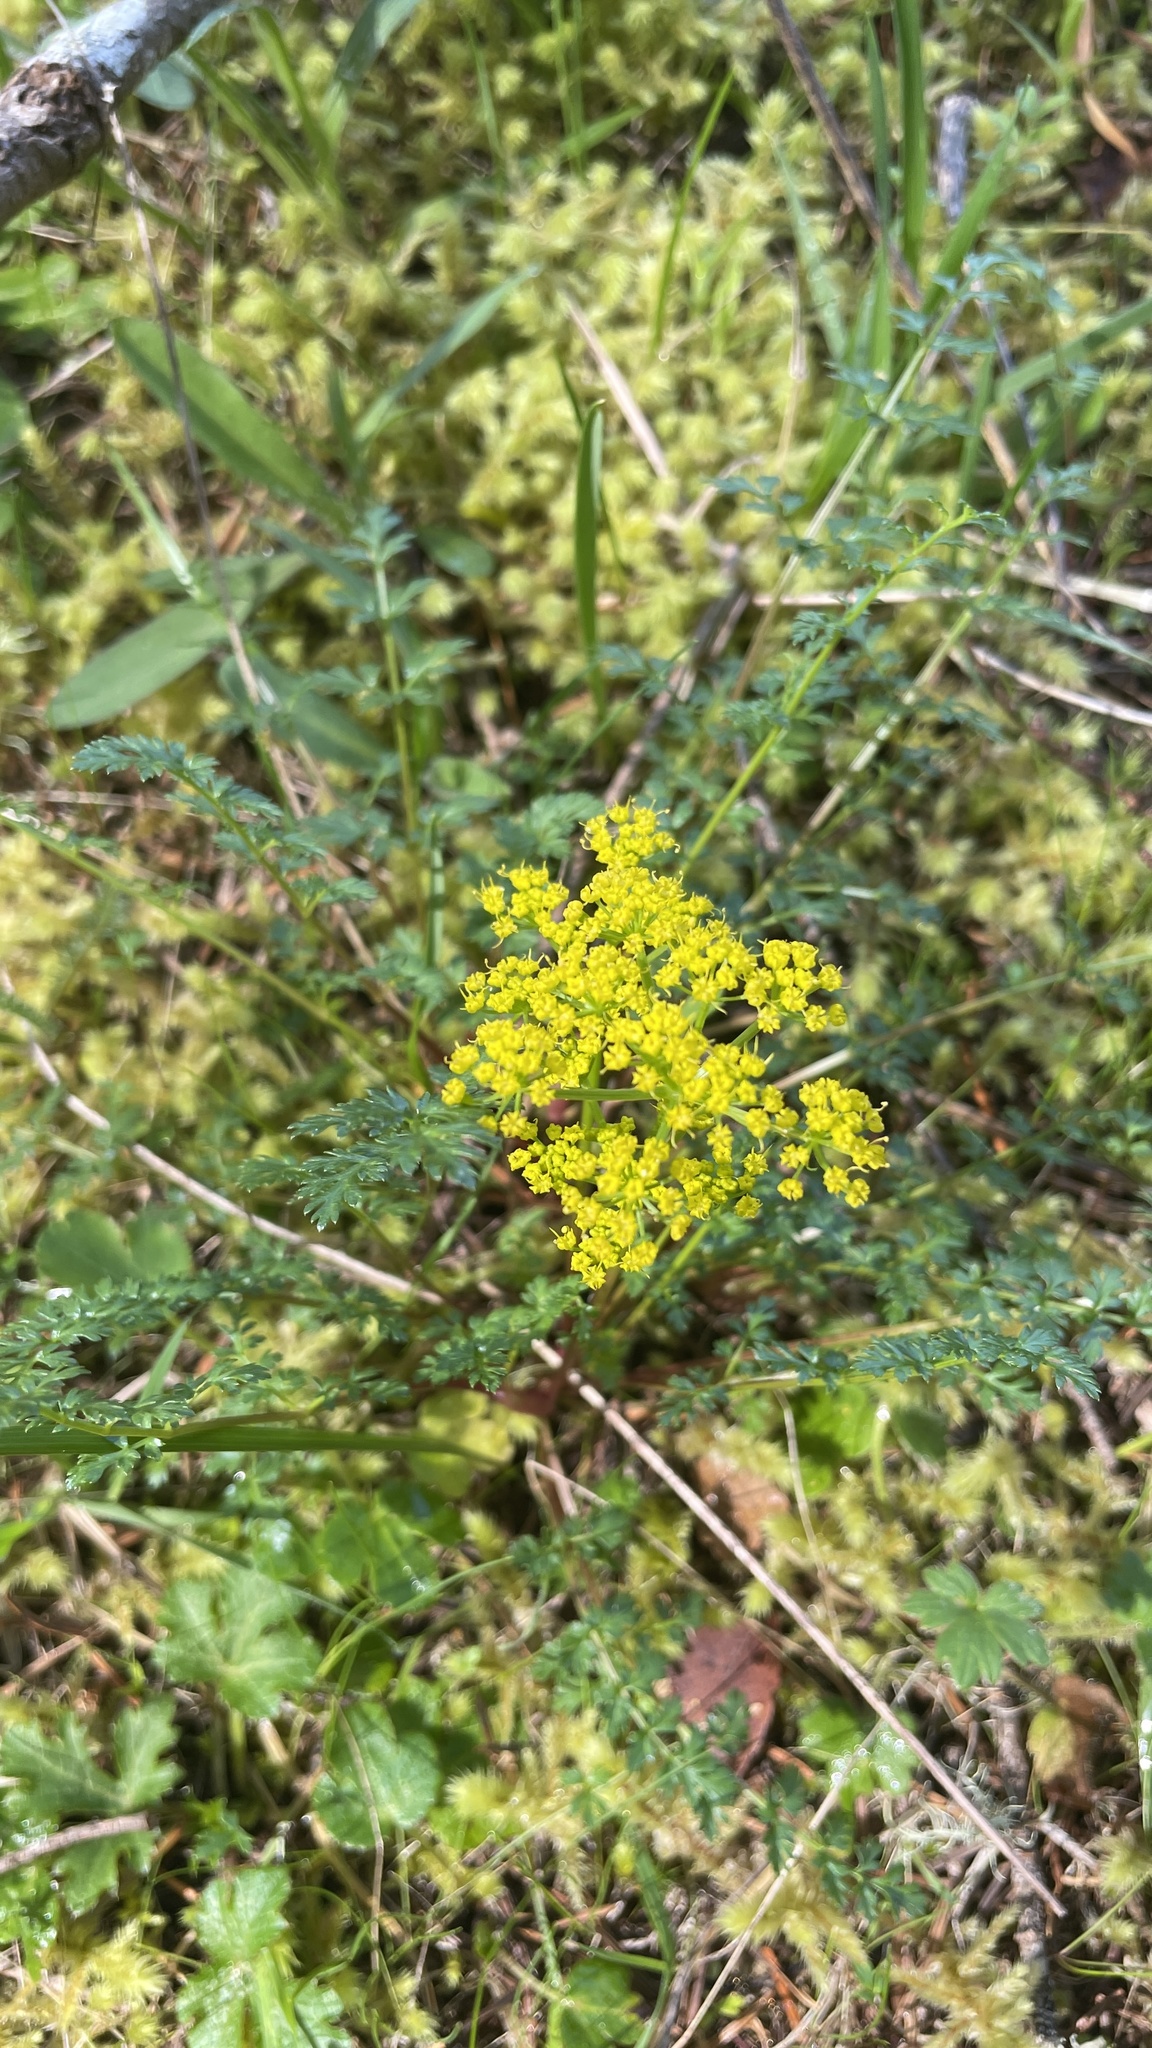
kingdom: Plantae
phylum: Tracheophyta
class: Magnoliopsida
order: Apiales
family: Apiaceae
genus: Lomatium
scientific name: Lomatium hallii
